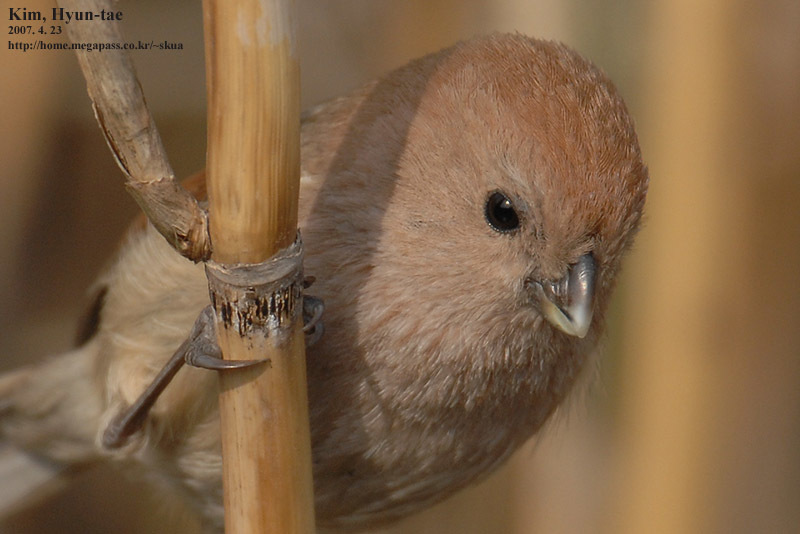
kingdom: Animalia
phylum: Chordata
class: Aves
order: Passeriformes
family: Sylviidae
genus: Sinosuthora
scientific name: Sinosuthora webbiana
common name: Vinous-throated parrotbill
